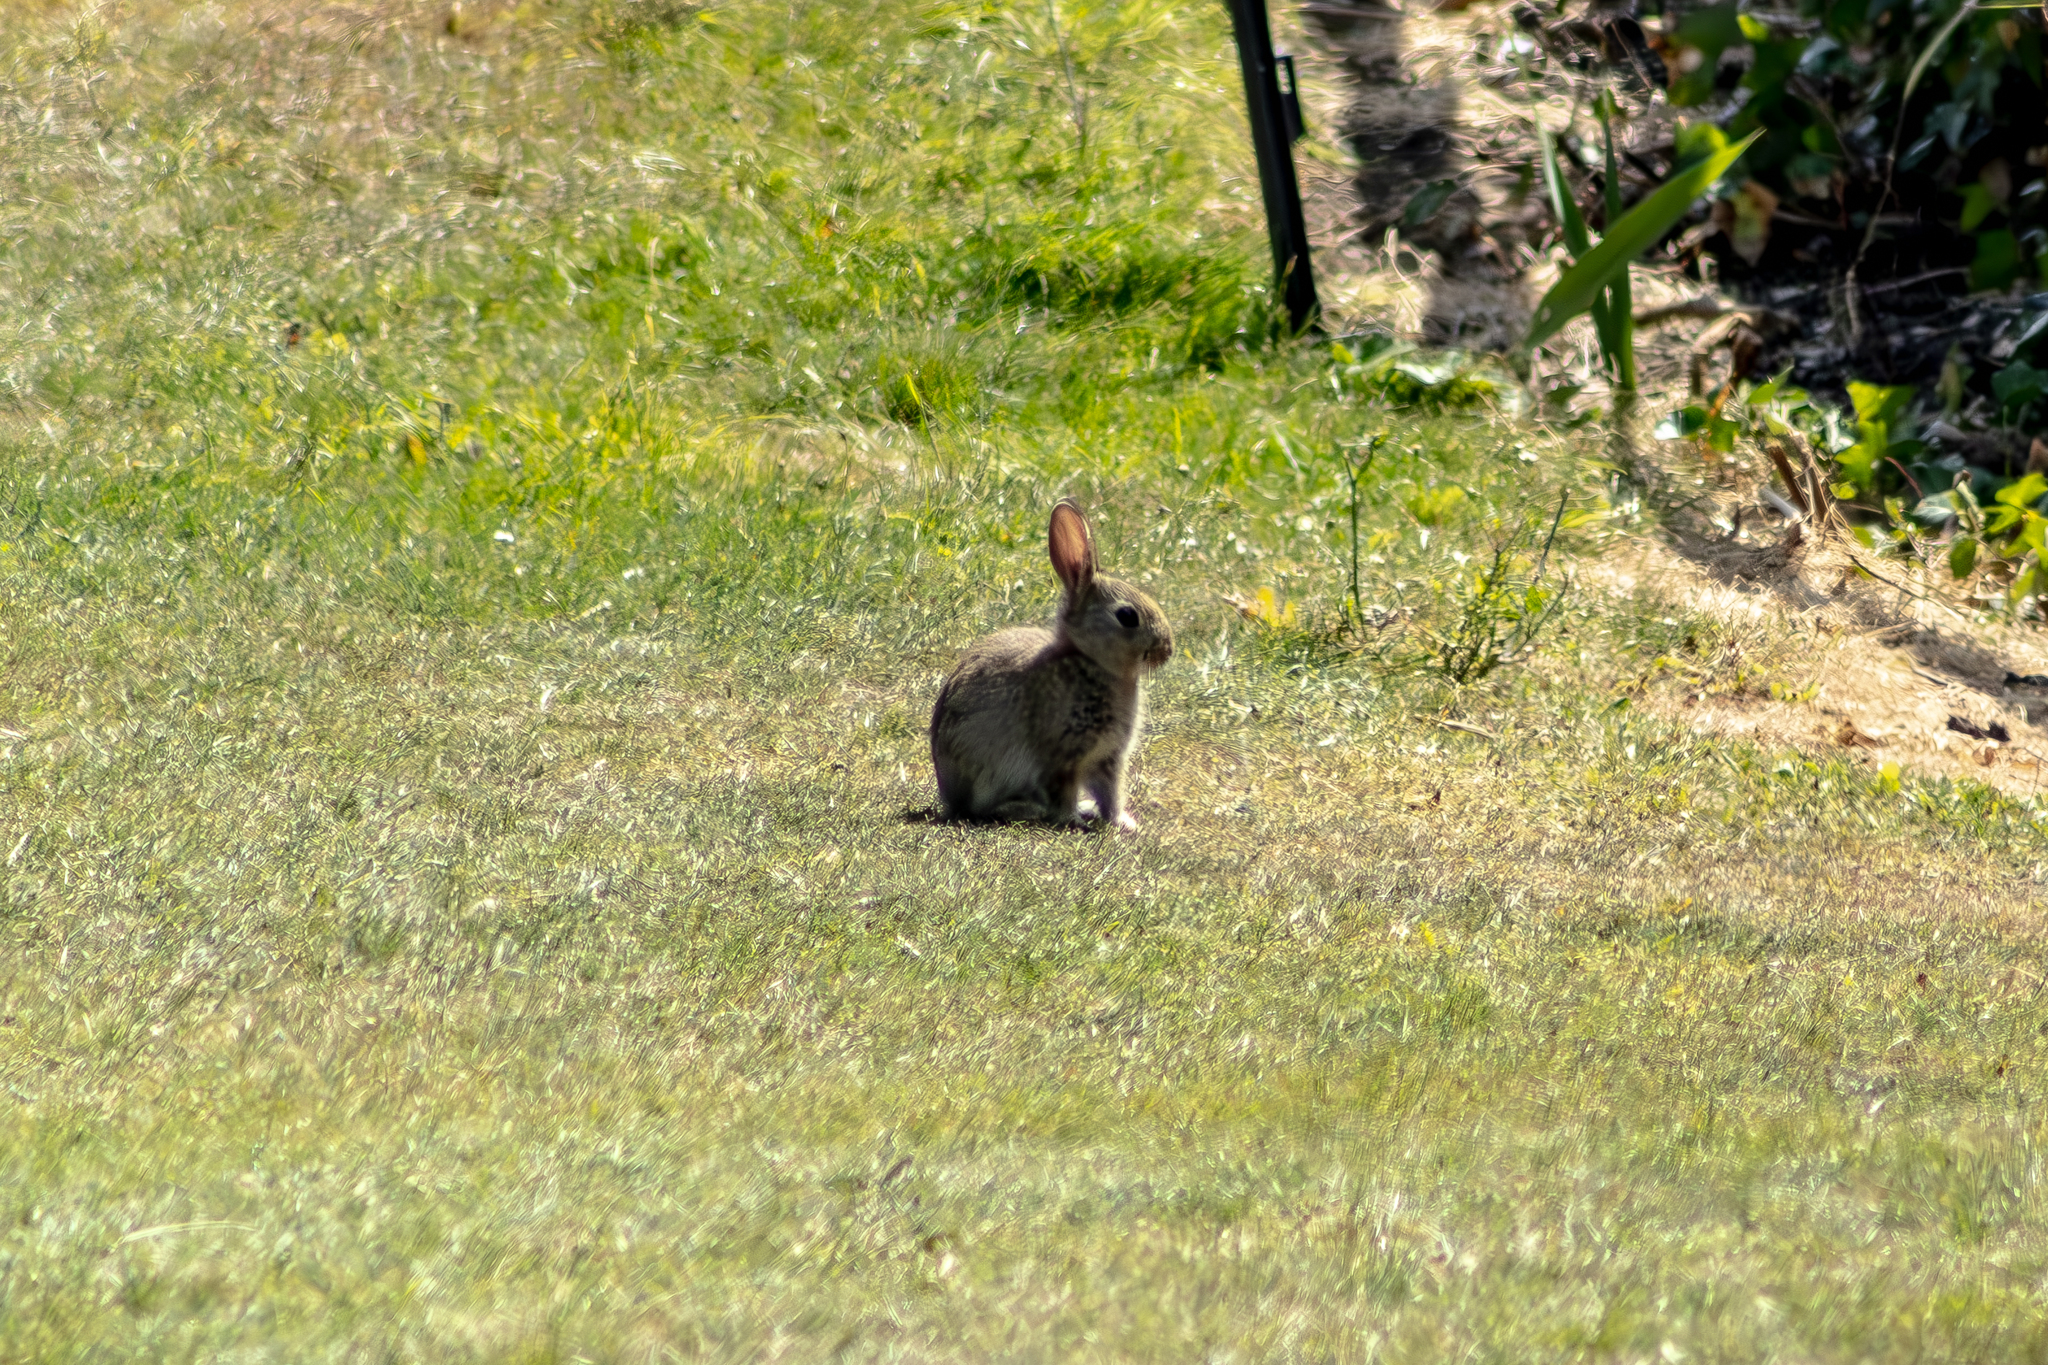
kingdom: Animalia
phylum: Chordata
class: Mammalia
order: Lagomorpha
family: Leporidae
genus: Oryctolagus
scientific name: Oryctolagus cuniculus
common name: European rabbit
